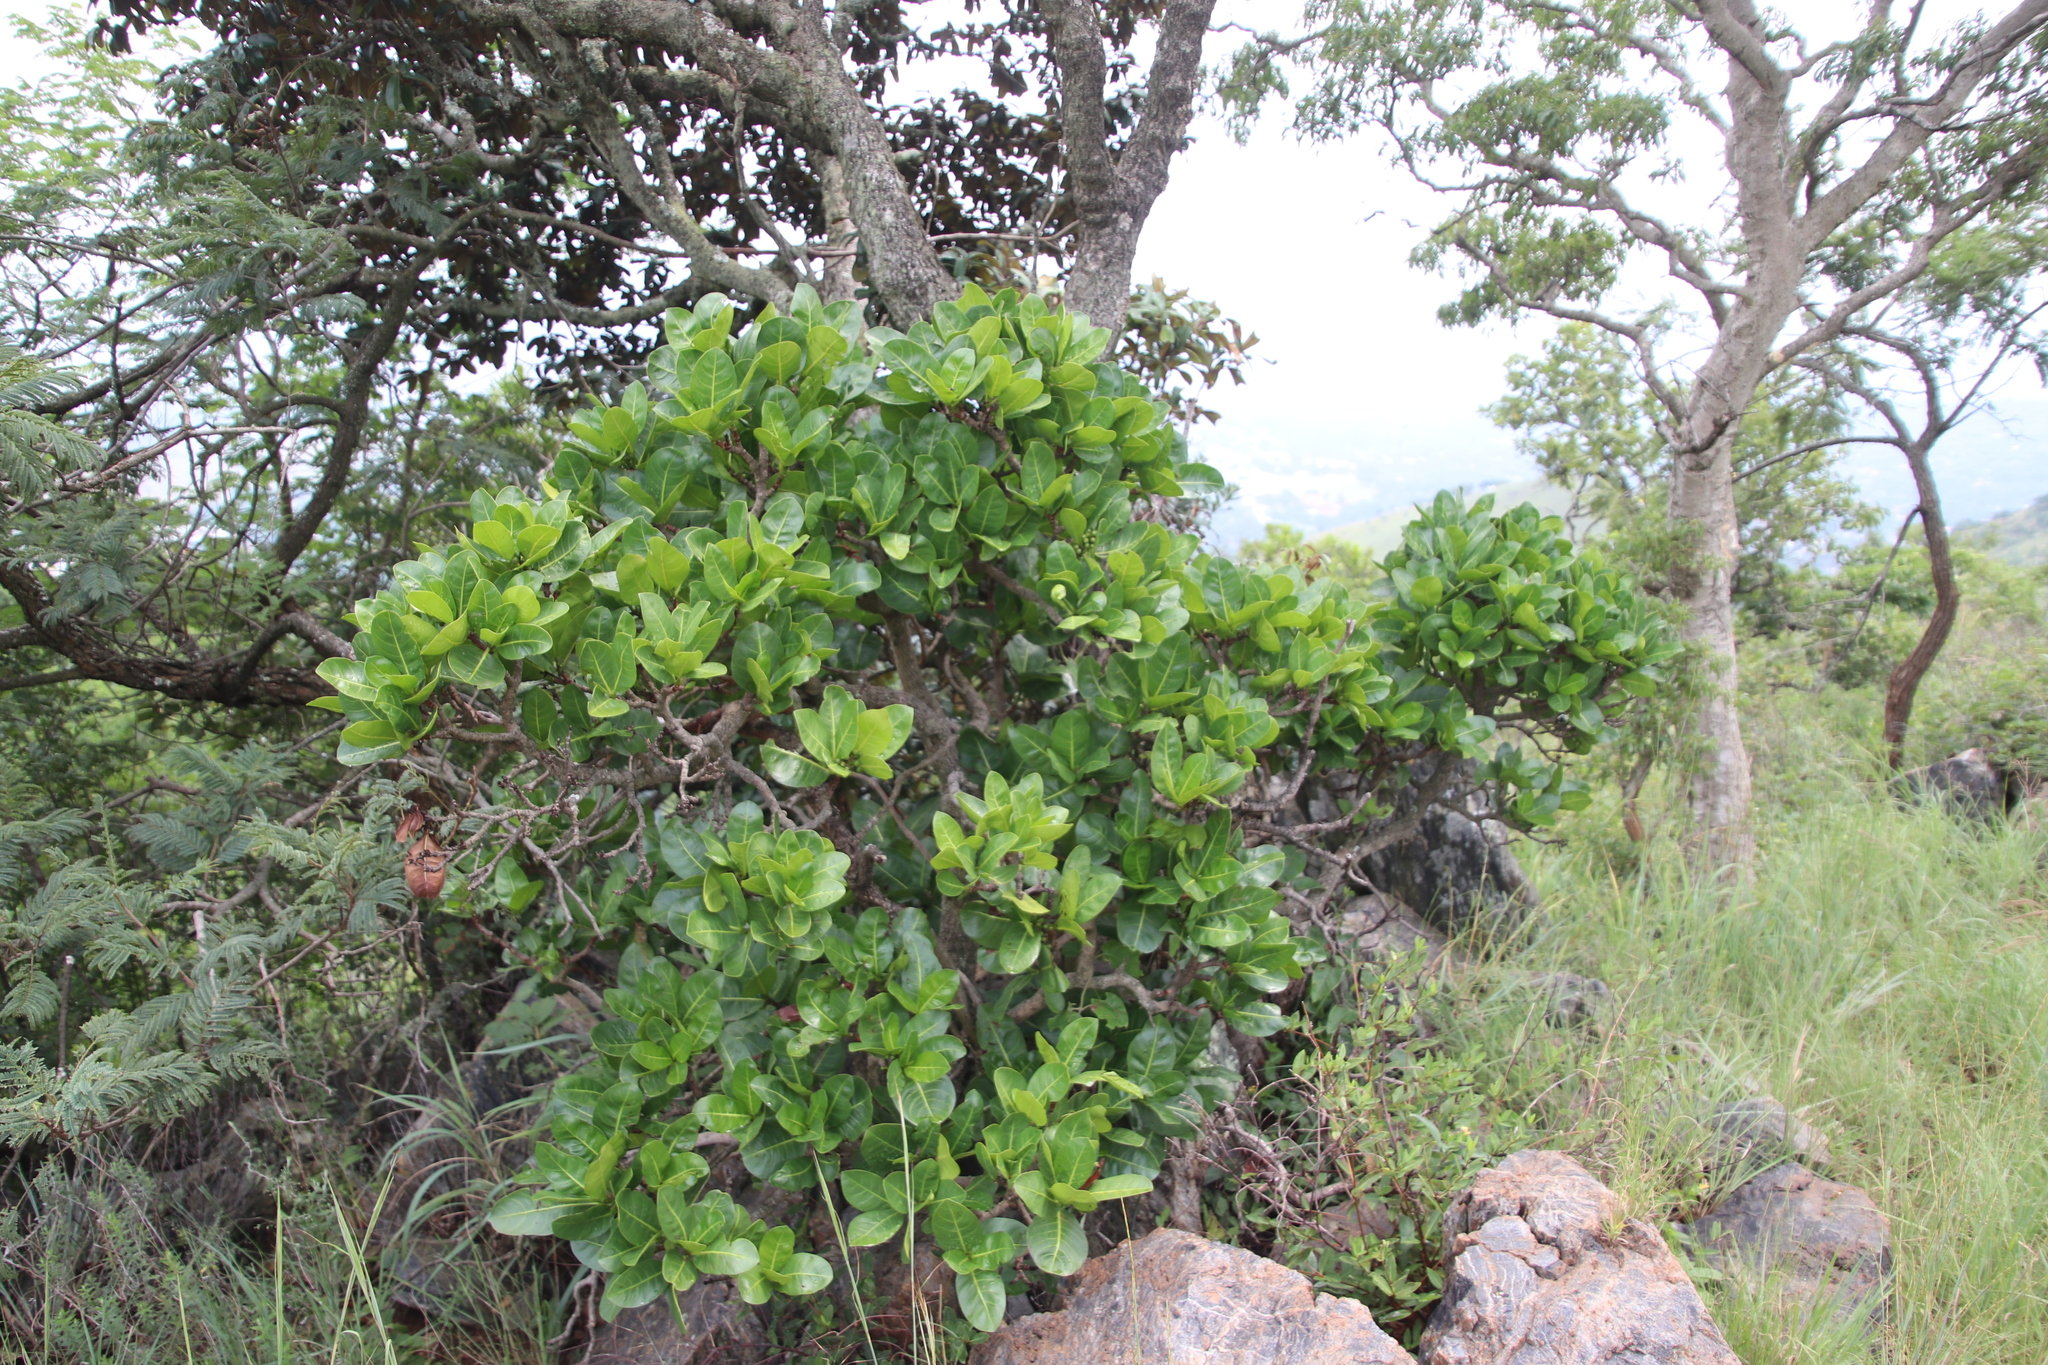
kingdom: Plantae
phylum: Tracheophyta
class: Magnoliopsida
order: Gentianales
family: Rubiaceae
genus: Psychotria
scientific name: Psychotria
